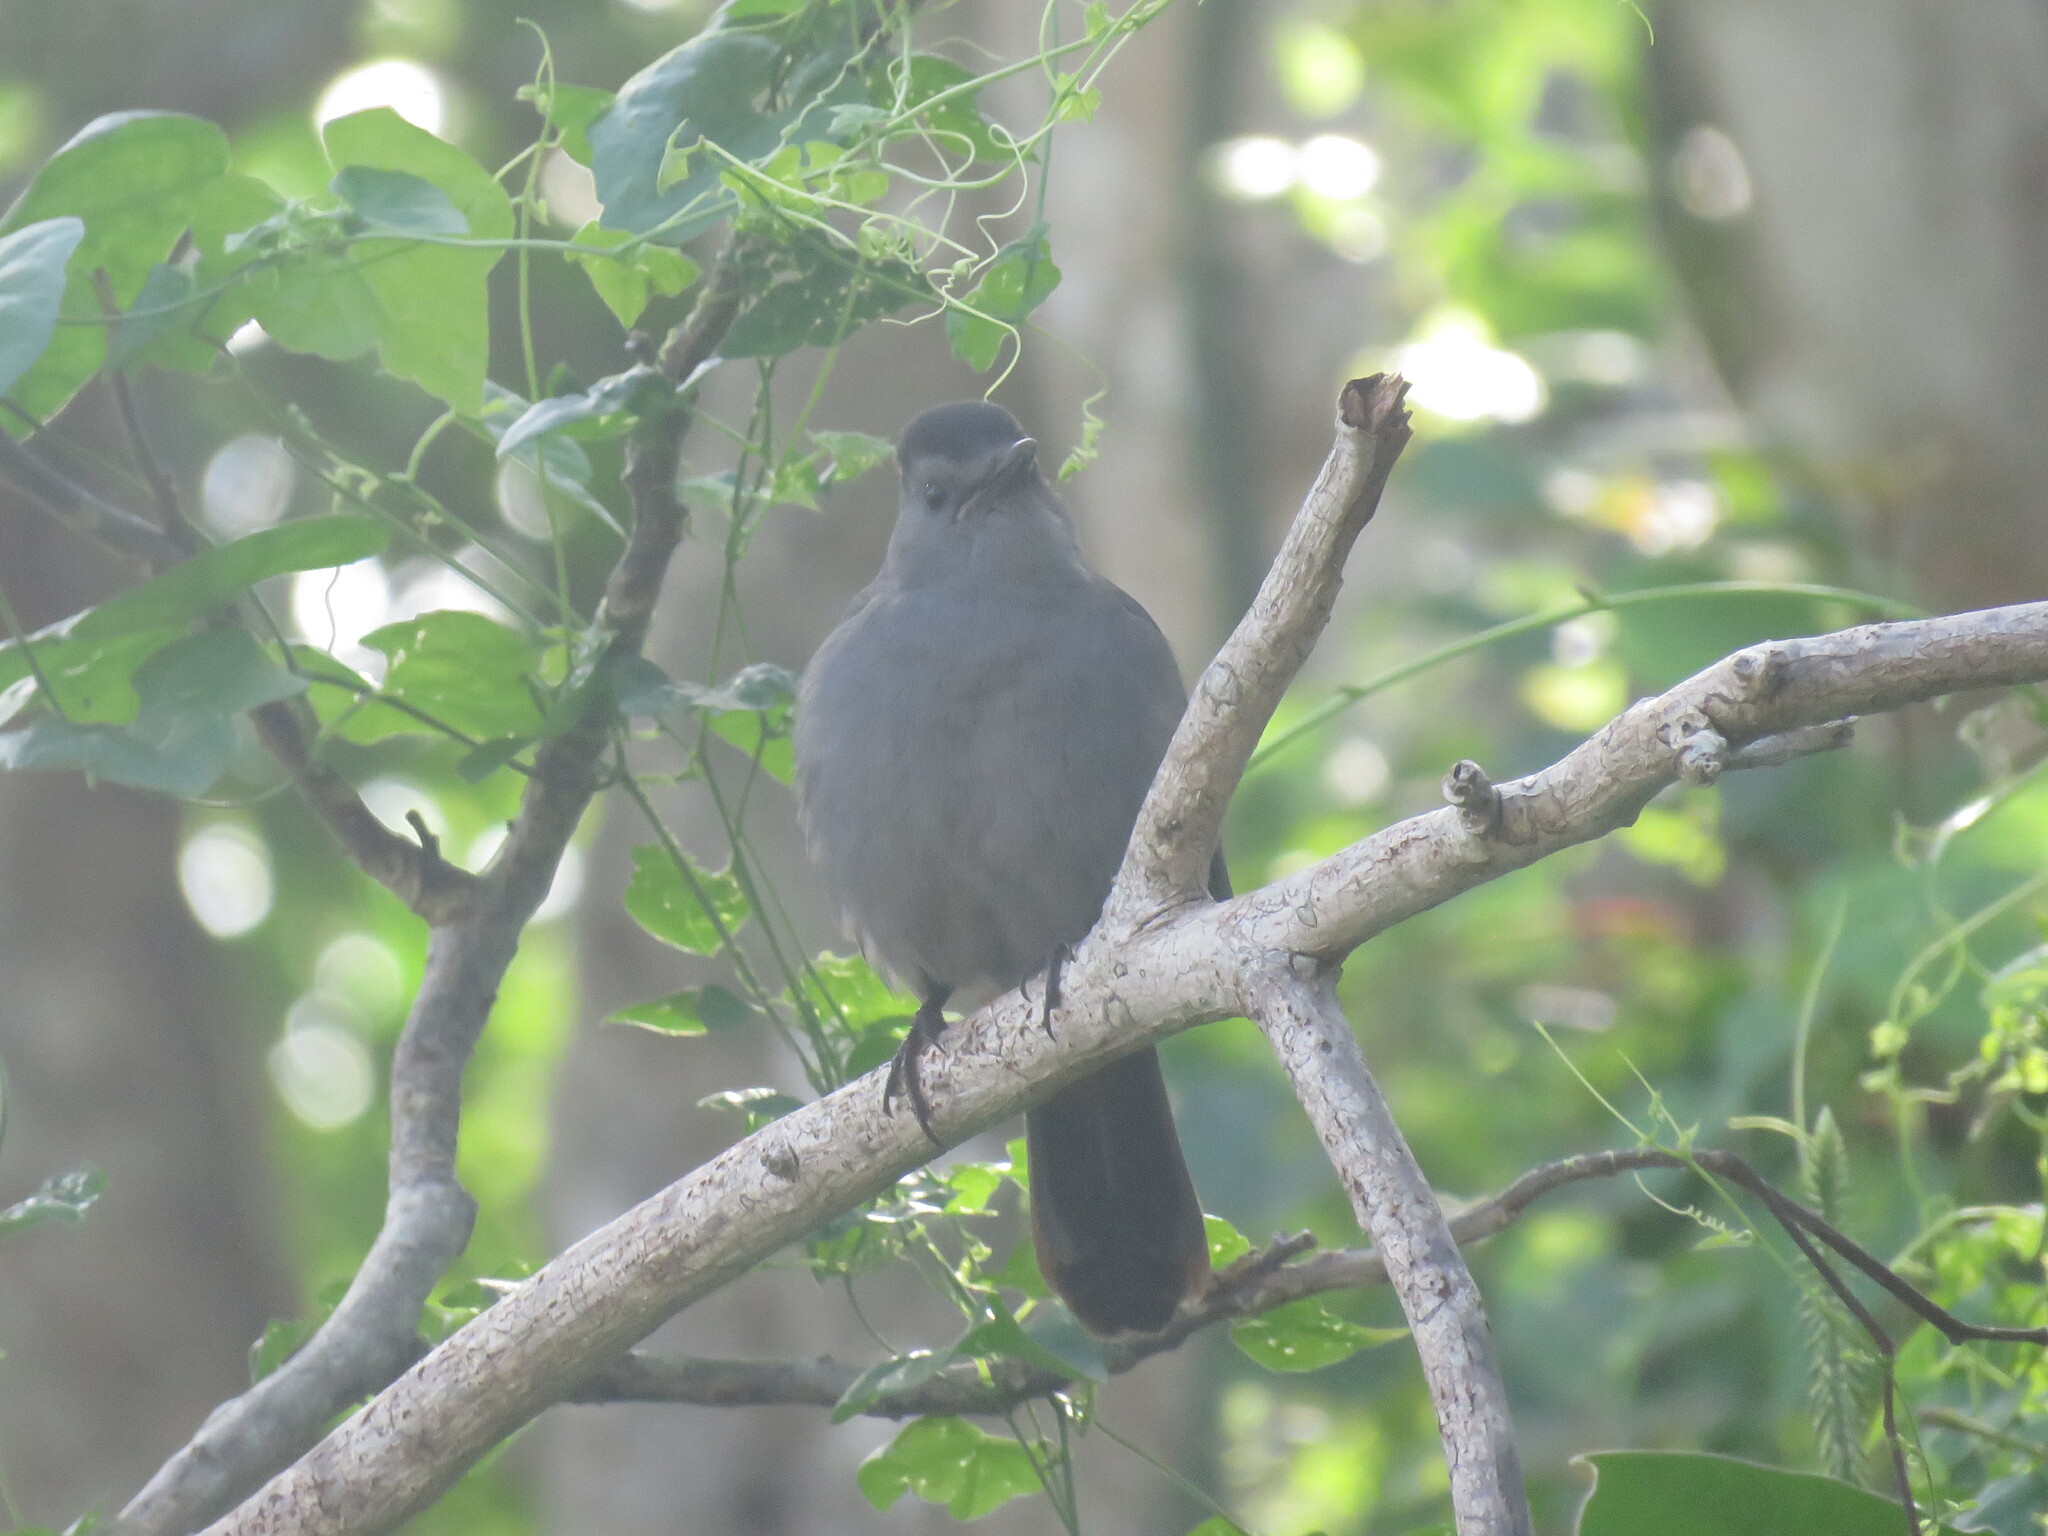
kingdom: Animalia
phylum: Chordata
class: Aves
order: Passeriformes
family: Mimidae
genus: Dumetella
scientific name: Dumetella carolinensis
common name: Gray catbird
